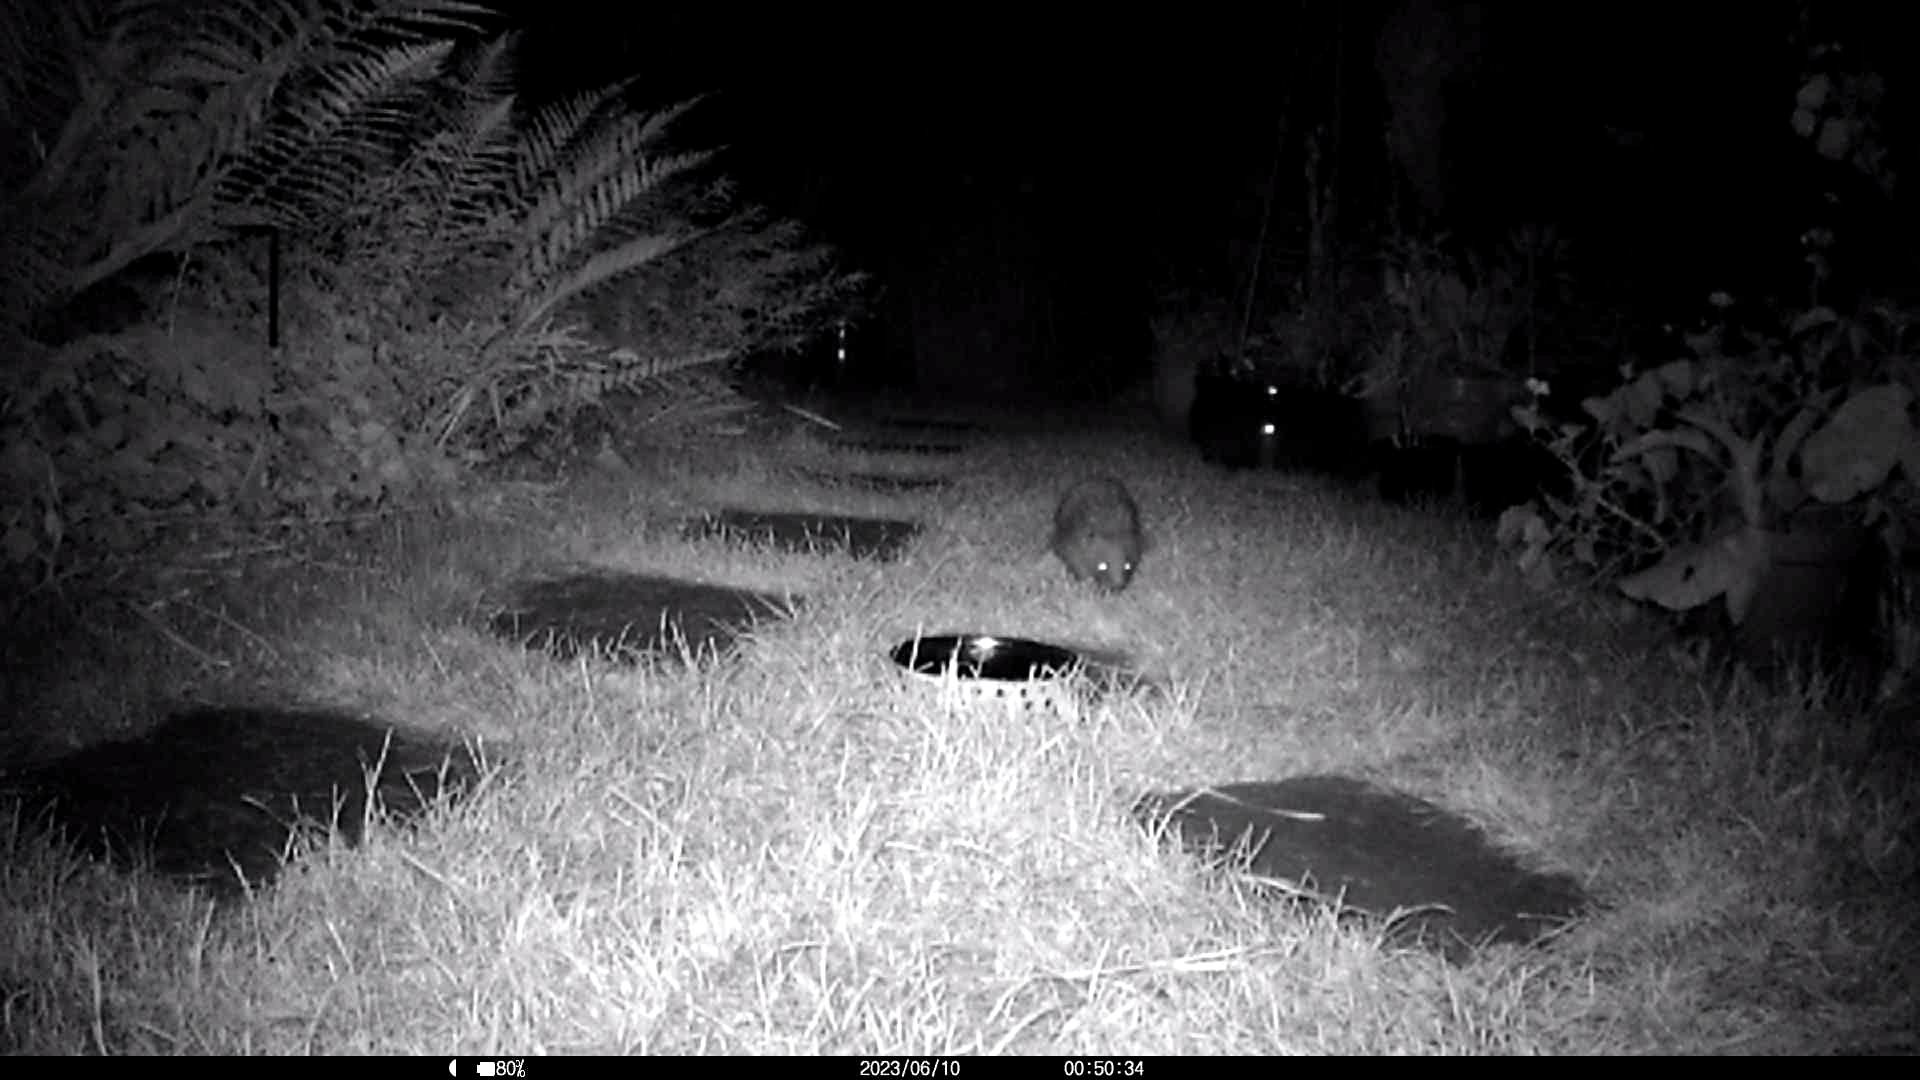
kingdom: Animalia
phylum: Chordata
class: Mammalia
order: Erinaceomorpha
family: Erinaceidae
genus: Erinaceus
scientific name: Erinaceus europaeus
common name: West european hedgehog
